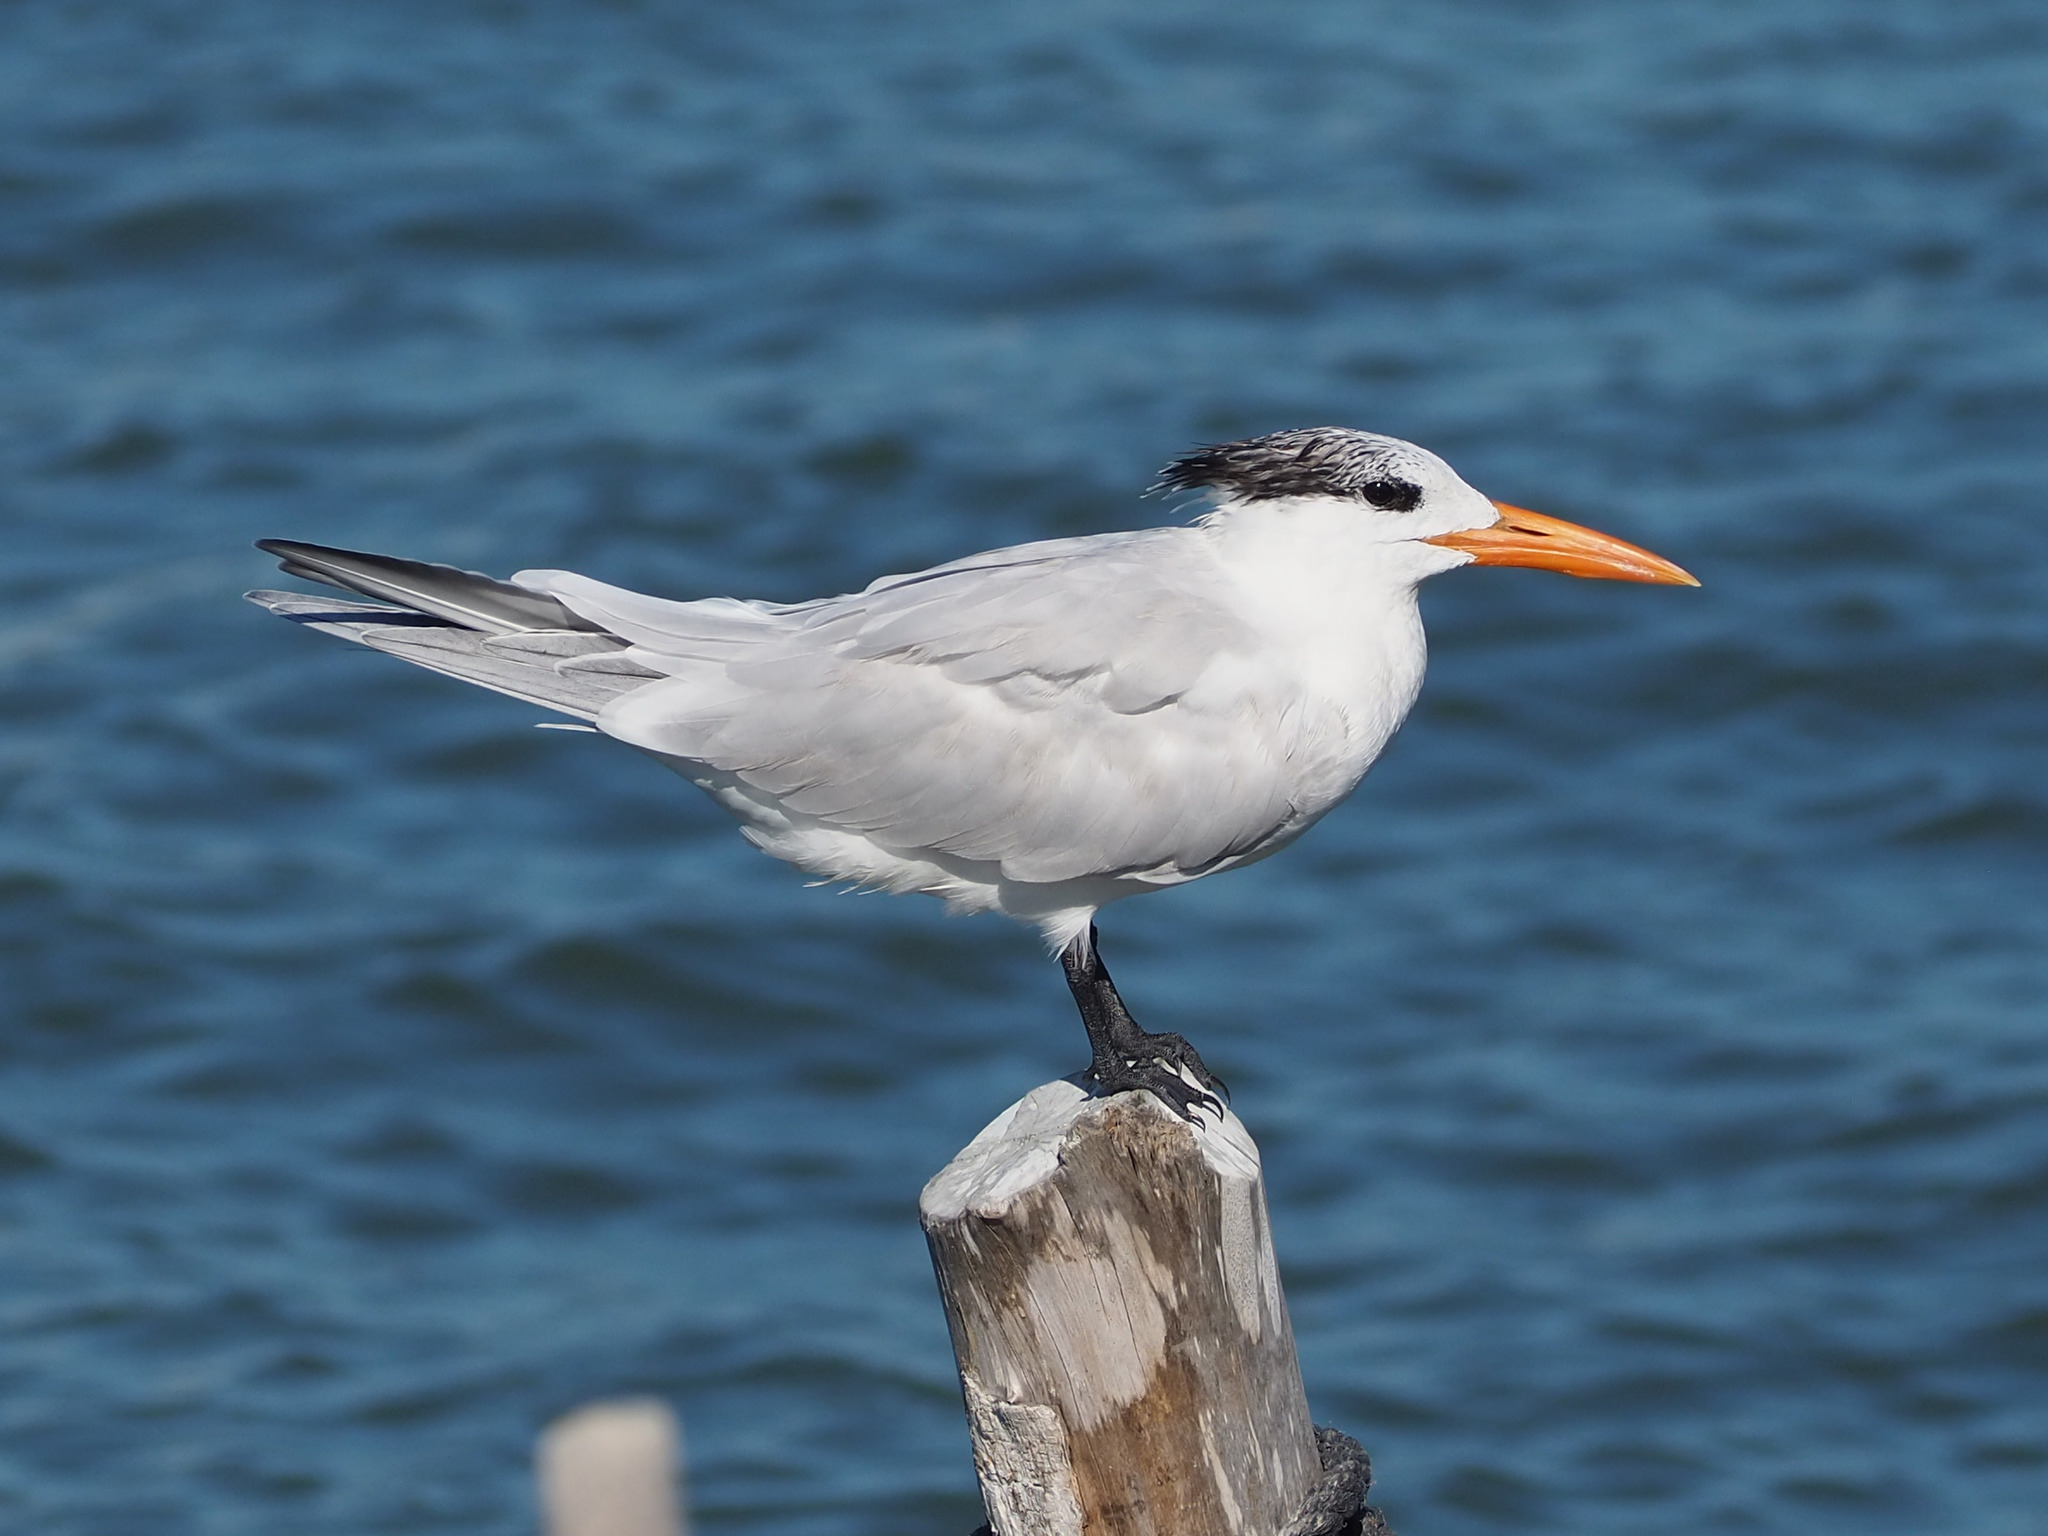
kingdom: Animalia
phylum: Chordata
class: Aves
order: Charadriiformes
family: Laridae
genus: Thalasseus
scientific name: Thalasseus maximus
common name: Royal tern
